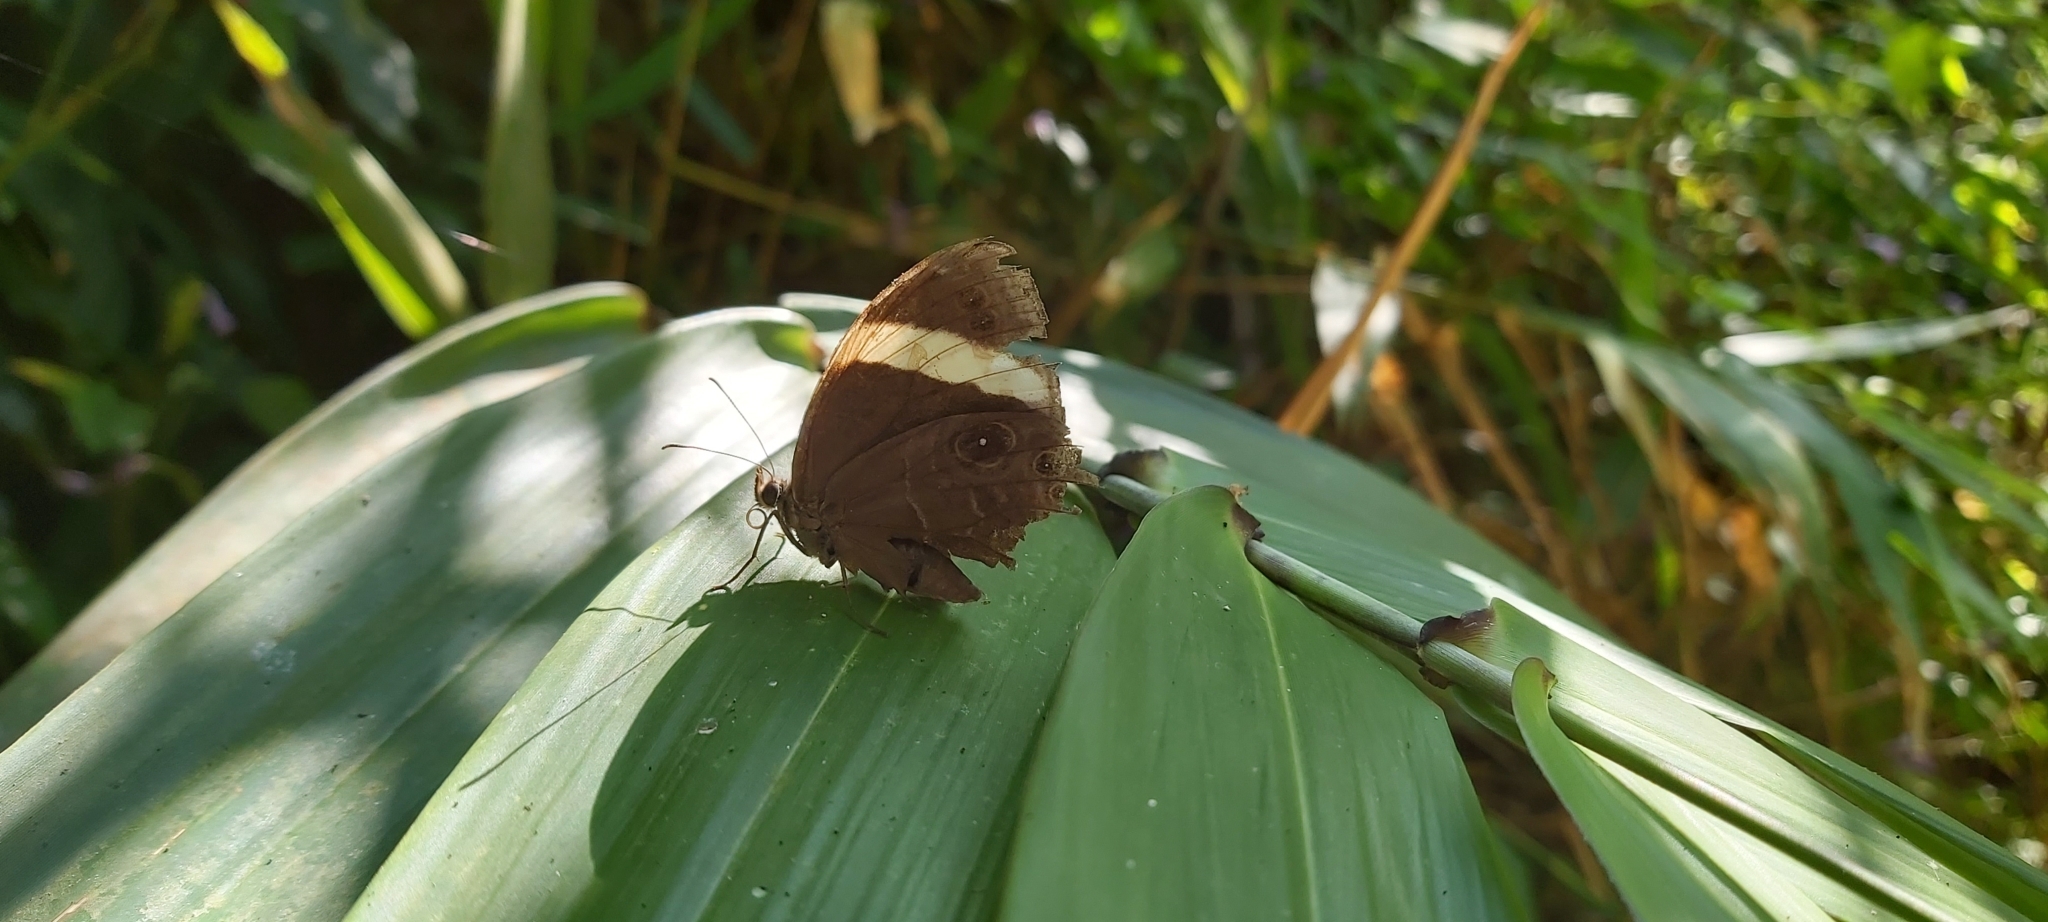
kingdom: Animalia
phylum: Arthropoda
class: Insecta
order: Lepidoptera
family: Nymphalidae
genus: Lethe
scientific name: Lethe verma
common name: Straight-banded treebrown
